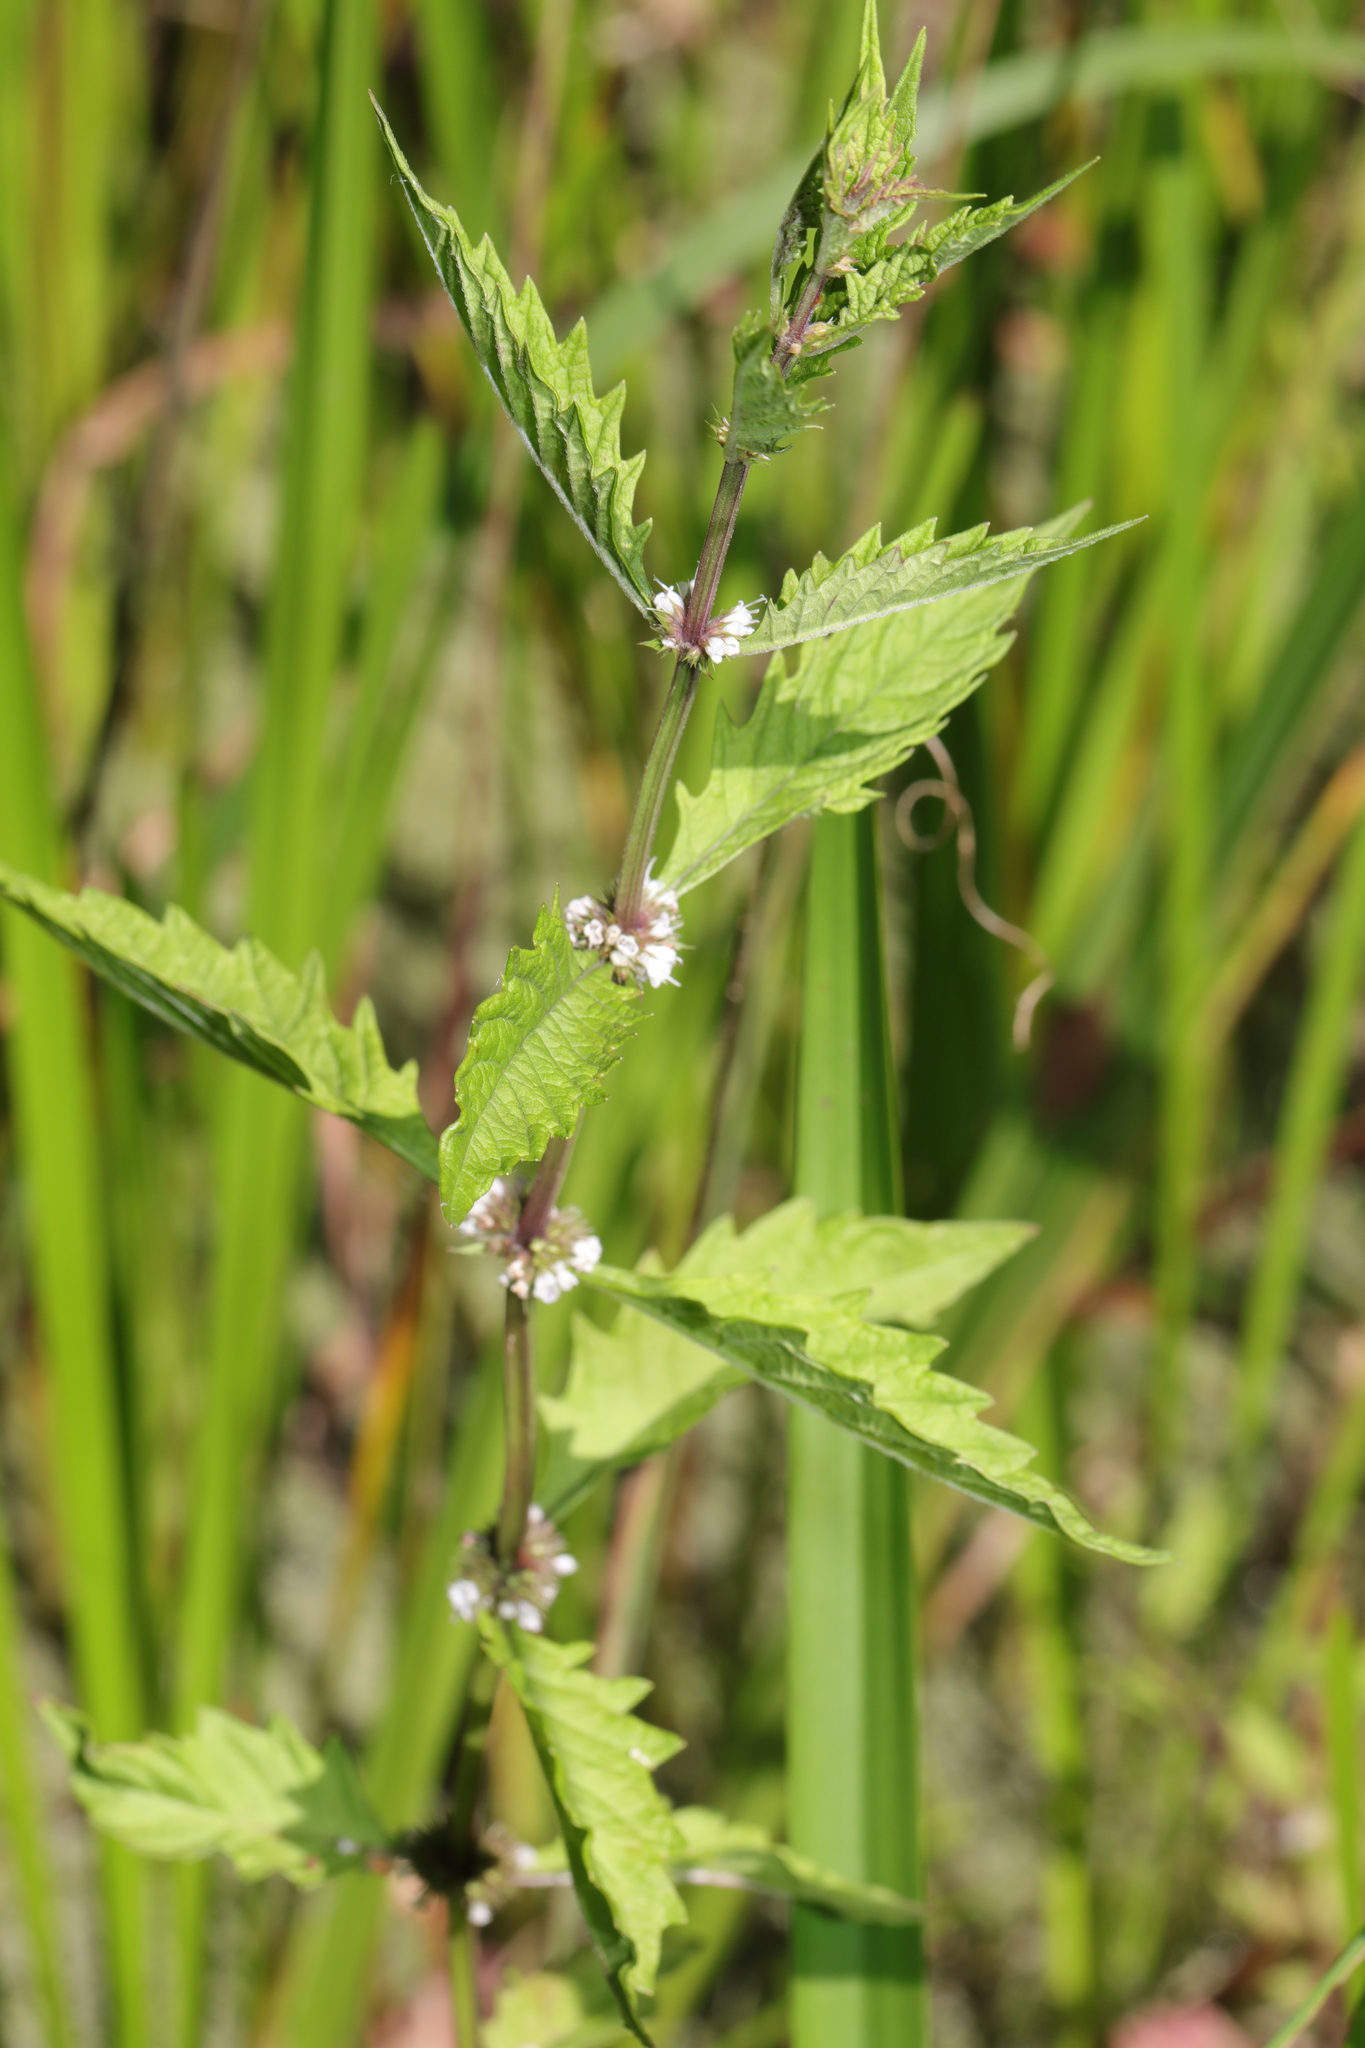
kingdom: Plantae
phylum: Tracheophyta
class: Magnoliopsida
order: Lamiales
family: Lamiaceae
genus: Lycopus
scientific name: Lycopus europaeus
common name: European bugleweed
